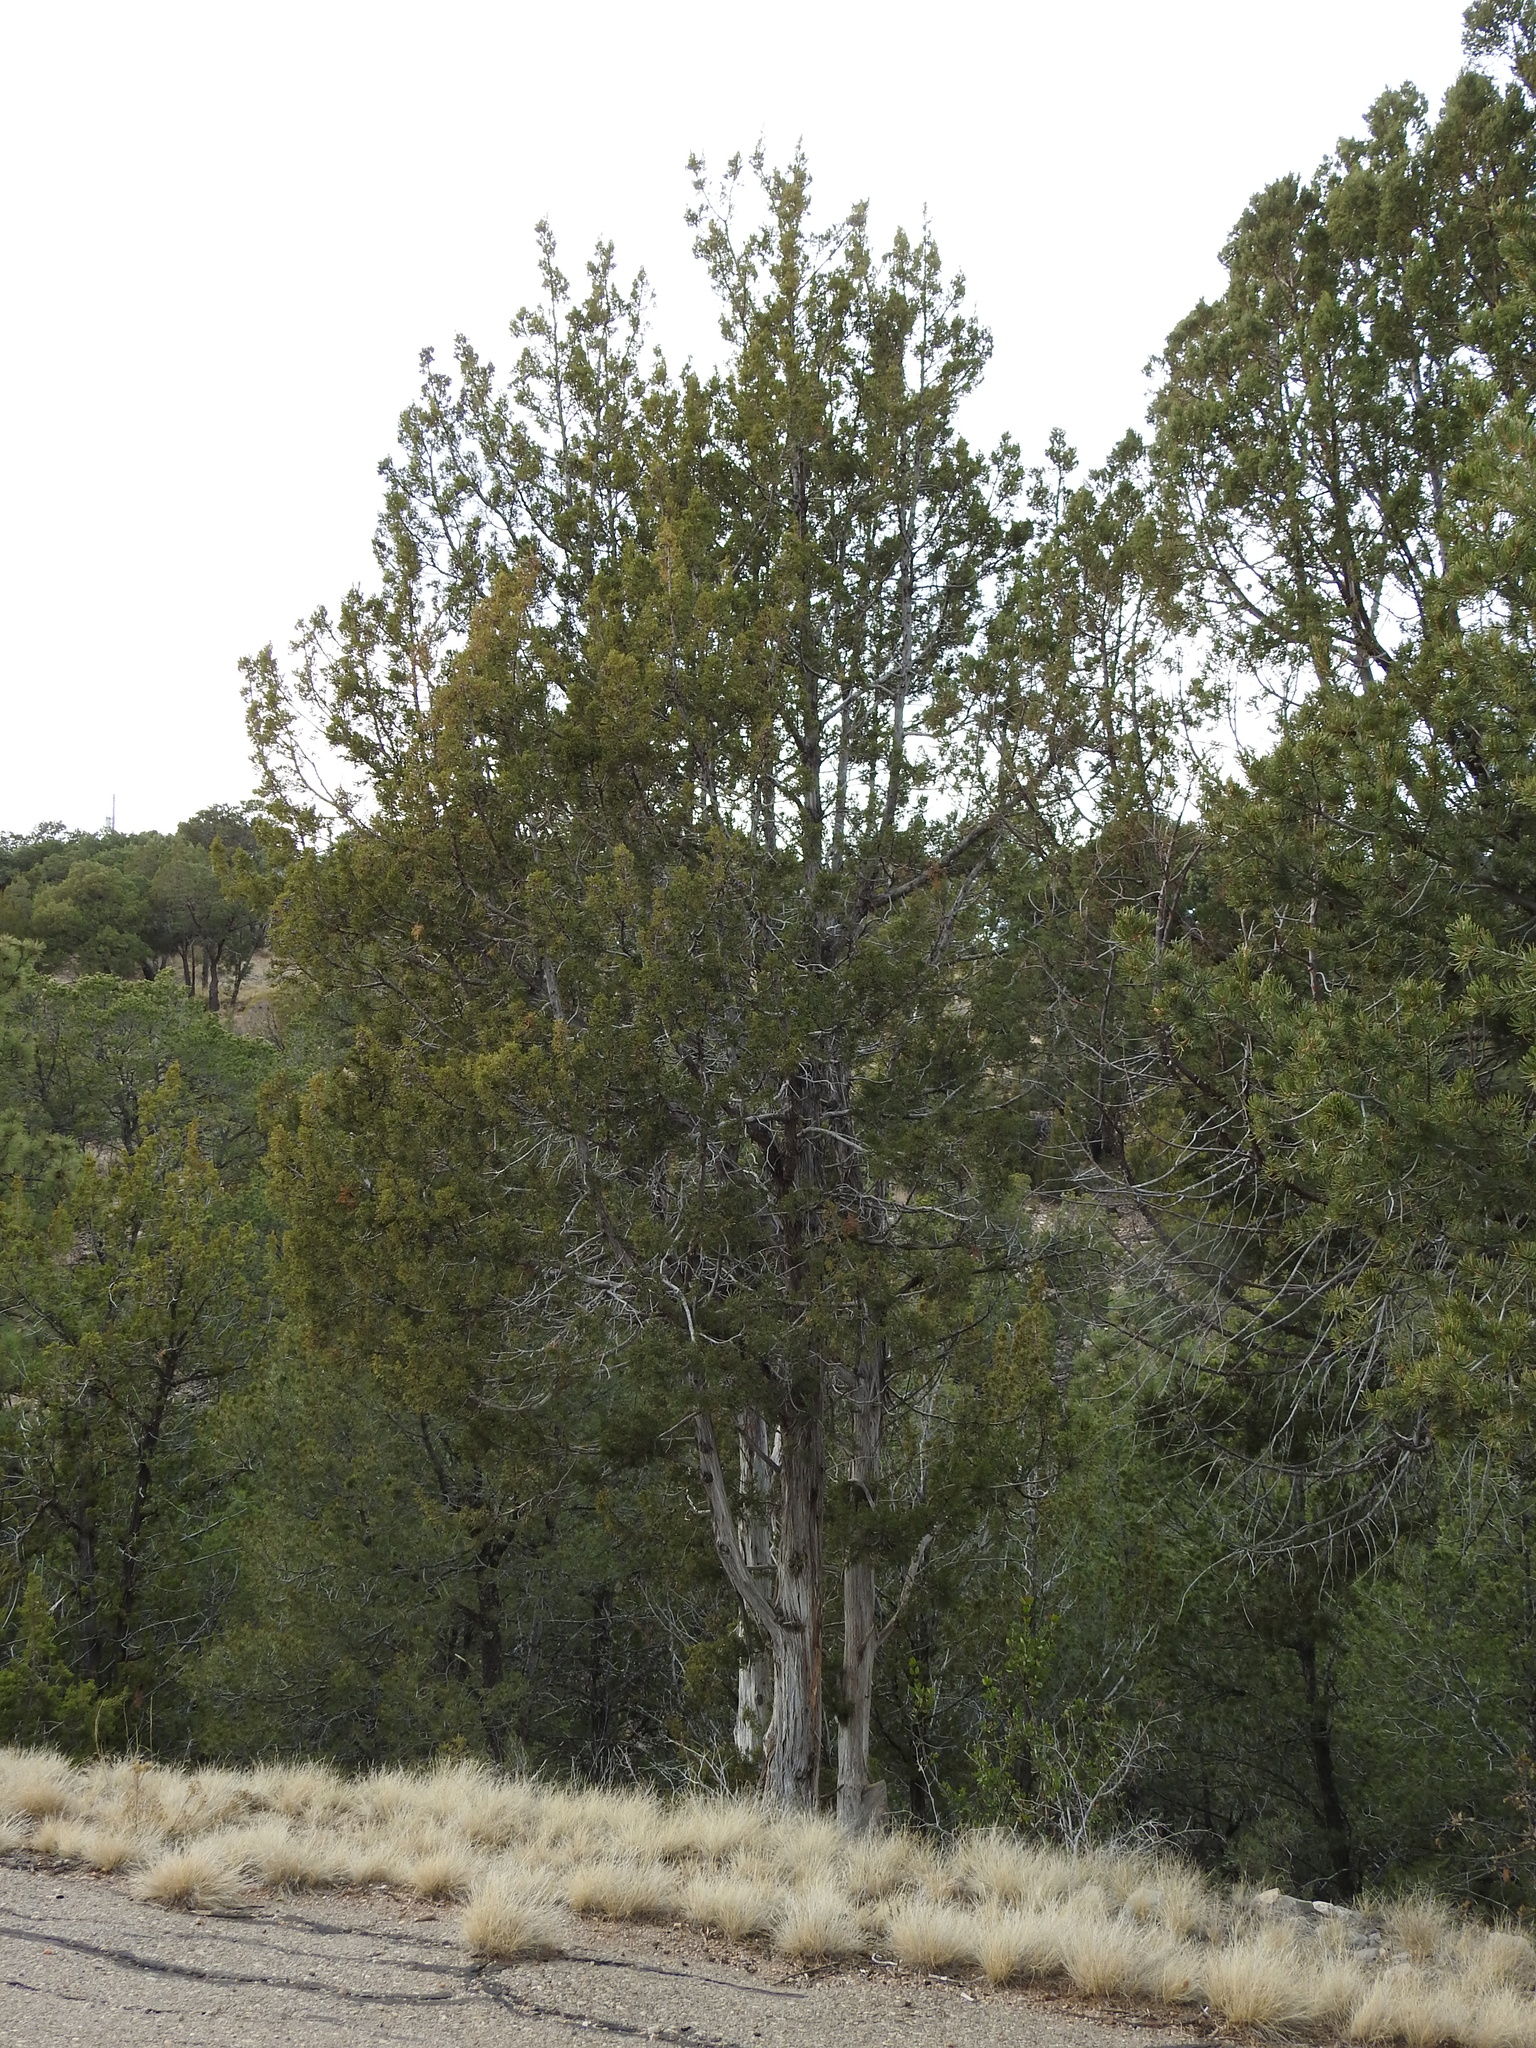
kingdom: Plantae
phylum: Tracheophyta
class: Pinopsida
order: Pinales
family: Cupressaceae
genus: Juniperus
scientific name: Juniperus monosperma
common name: One-seed juniper
